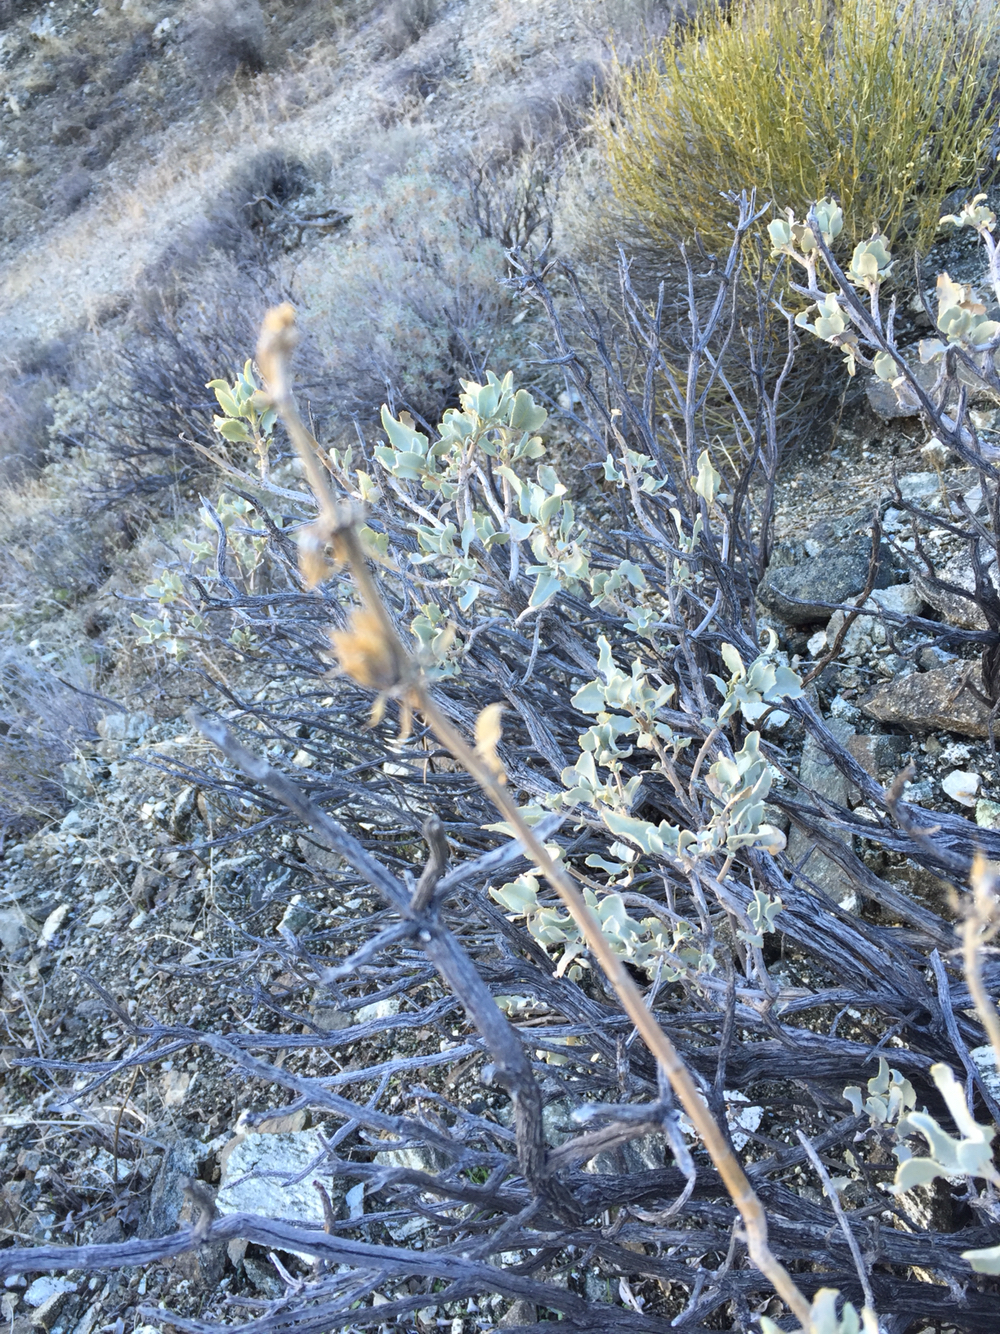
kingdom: Plantae
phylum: Tracheophyta
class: Magnoliopsida
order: Lamiales
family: Lamiaceae
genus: Salvia
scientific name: Salvia vaseyi
